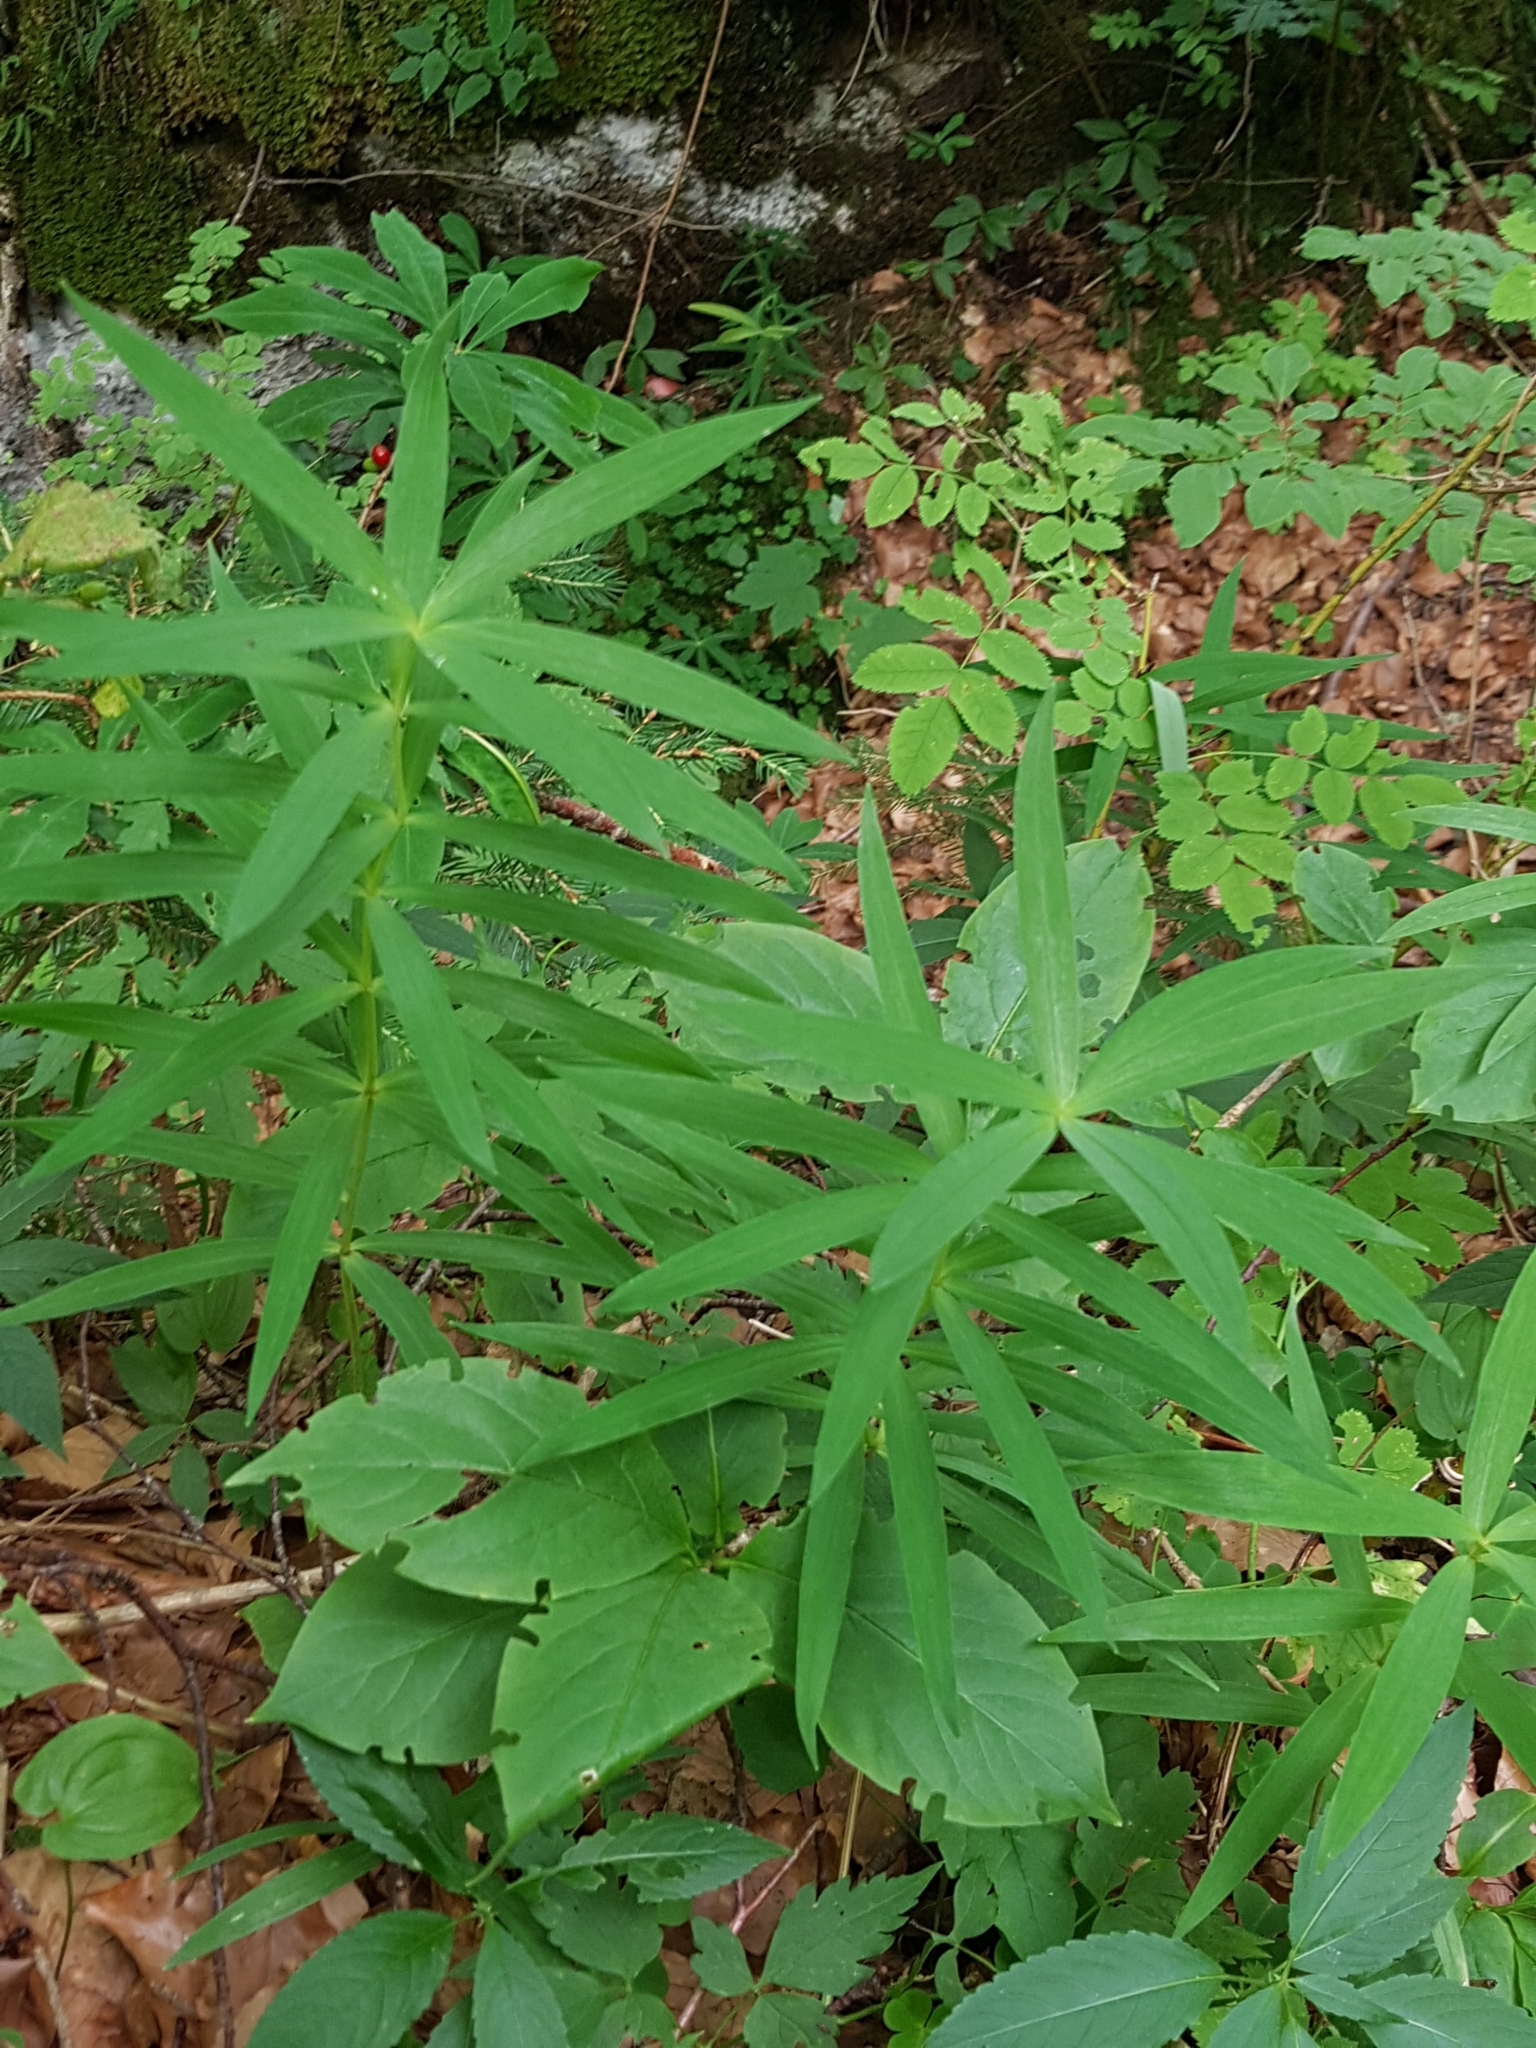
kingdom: Plantae
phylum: Tracheophyta
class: Liliopsida
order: Asparagales
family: Asparagaceae
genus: Polygonatum
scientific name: Polygonatum verticillatum
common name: Whorled solomon's-seal
